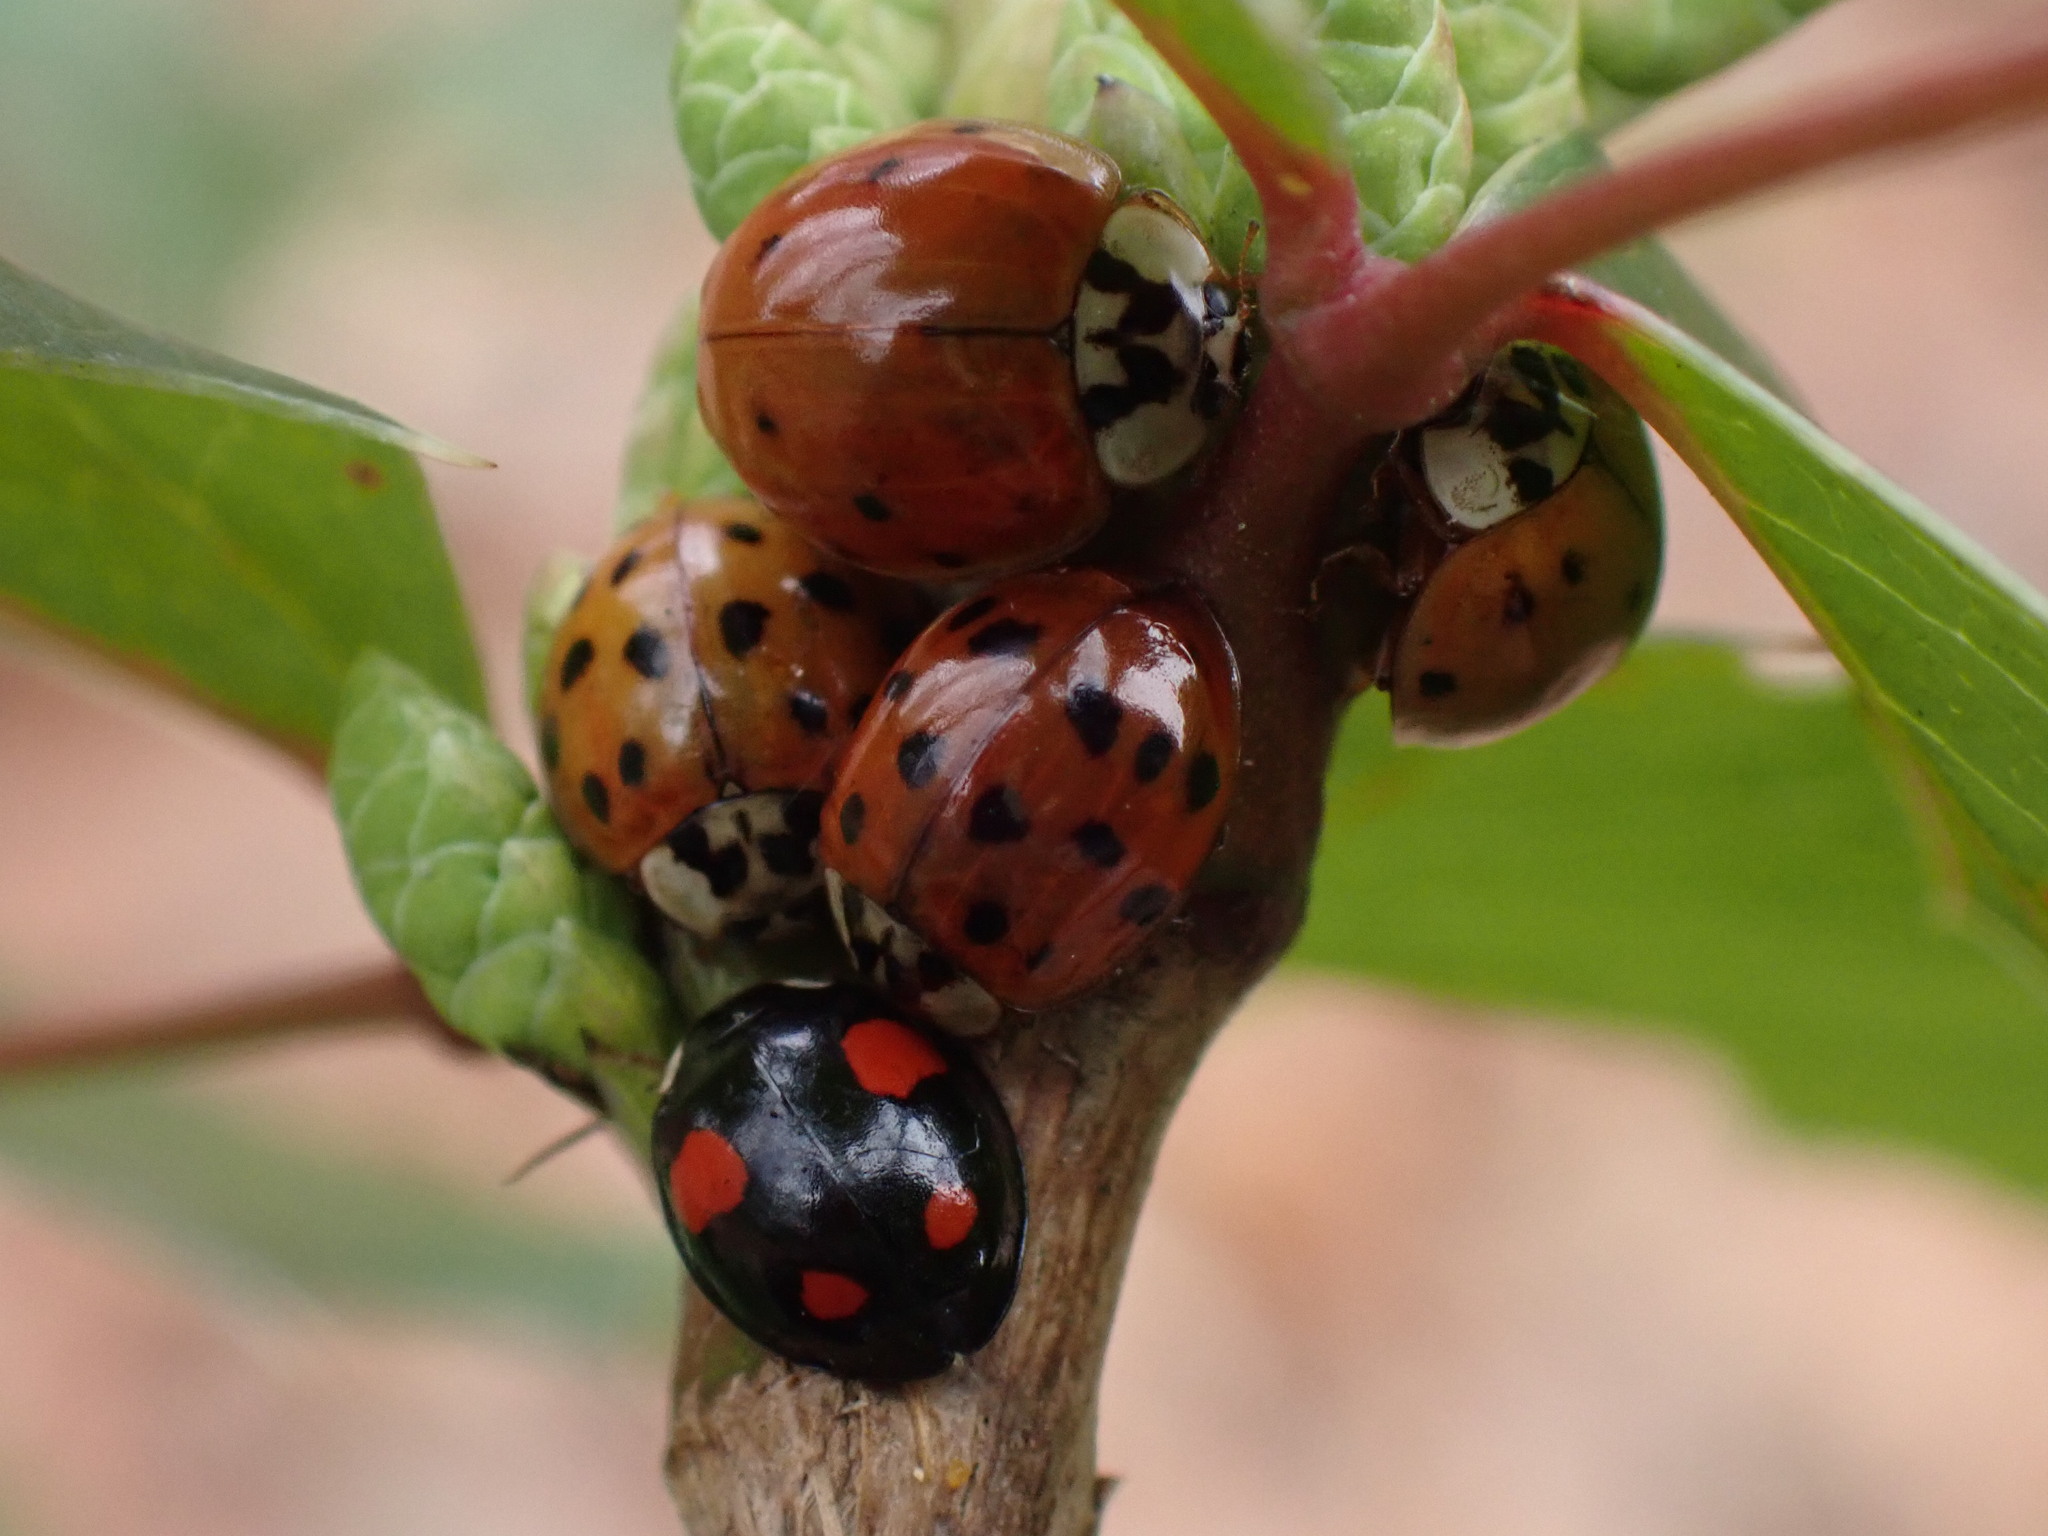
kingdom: Animalia
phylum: Arthropoda
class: Insecta
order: Coleoptera
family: Coccinellidae
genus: Harmonia
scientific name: Harmonia axyridis
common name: Harlequin ladybird
